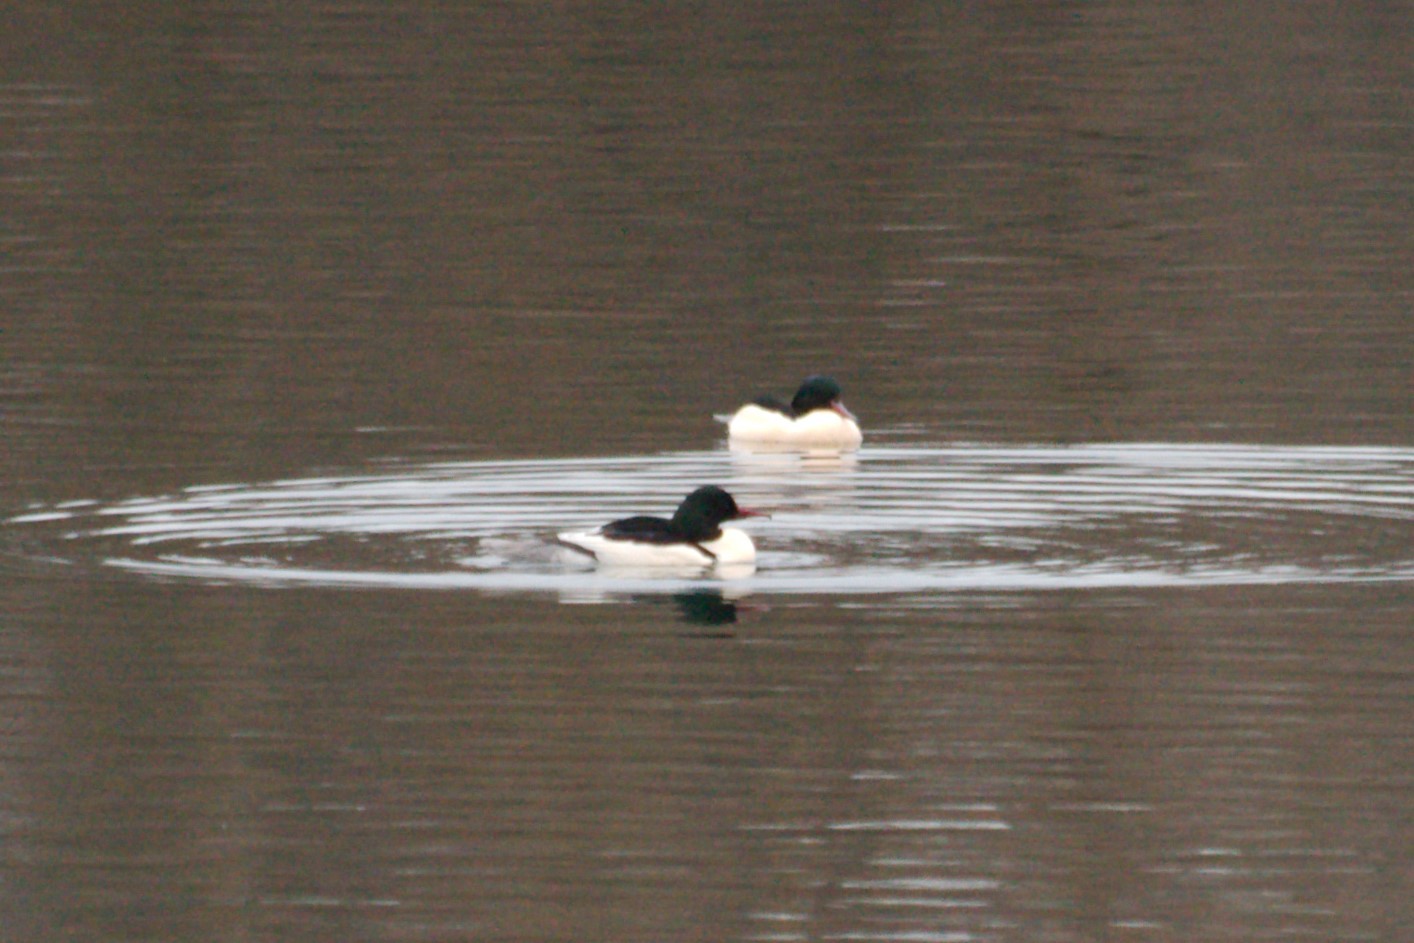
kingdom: Animalia
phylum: Chordata
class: Aves
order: Anseriformes
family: Anatidae
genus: Mergus
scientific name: Mergus merganser
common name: Common merganser
